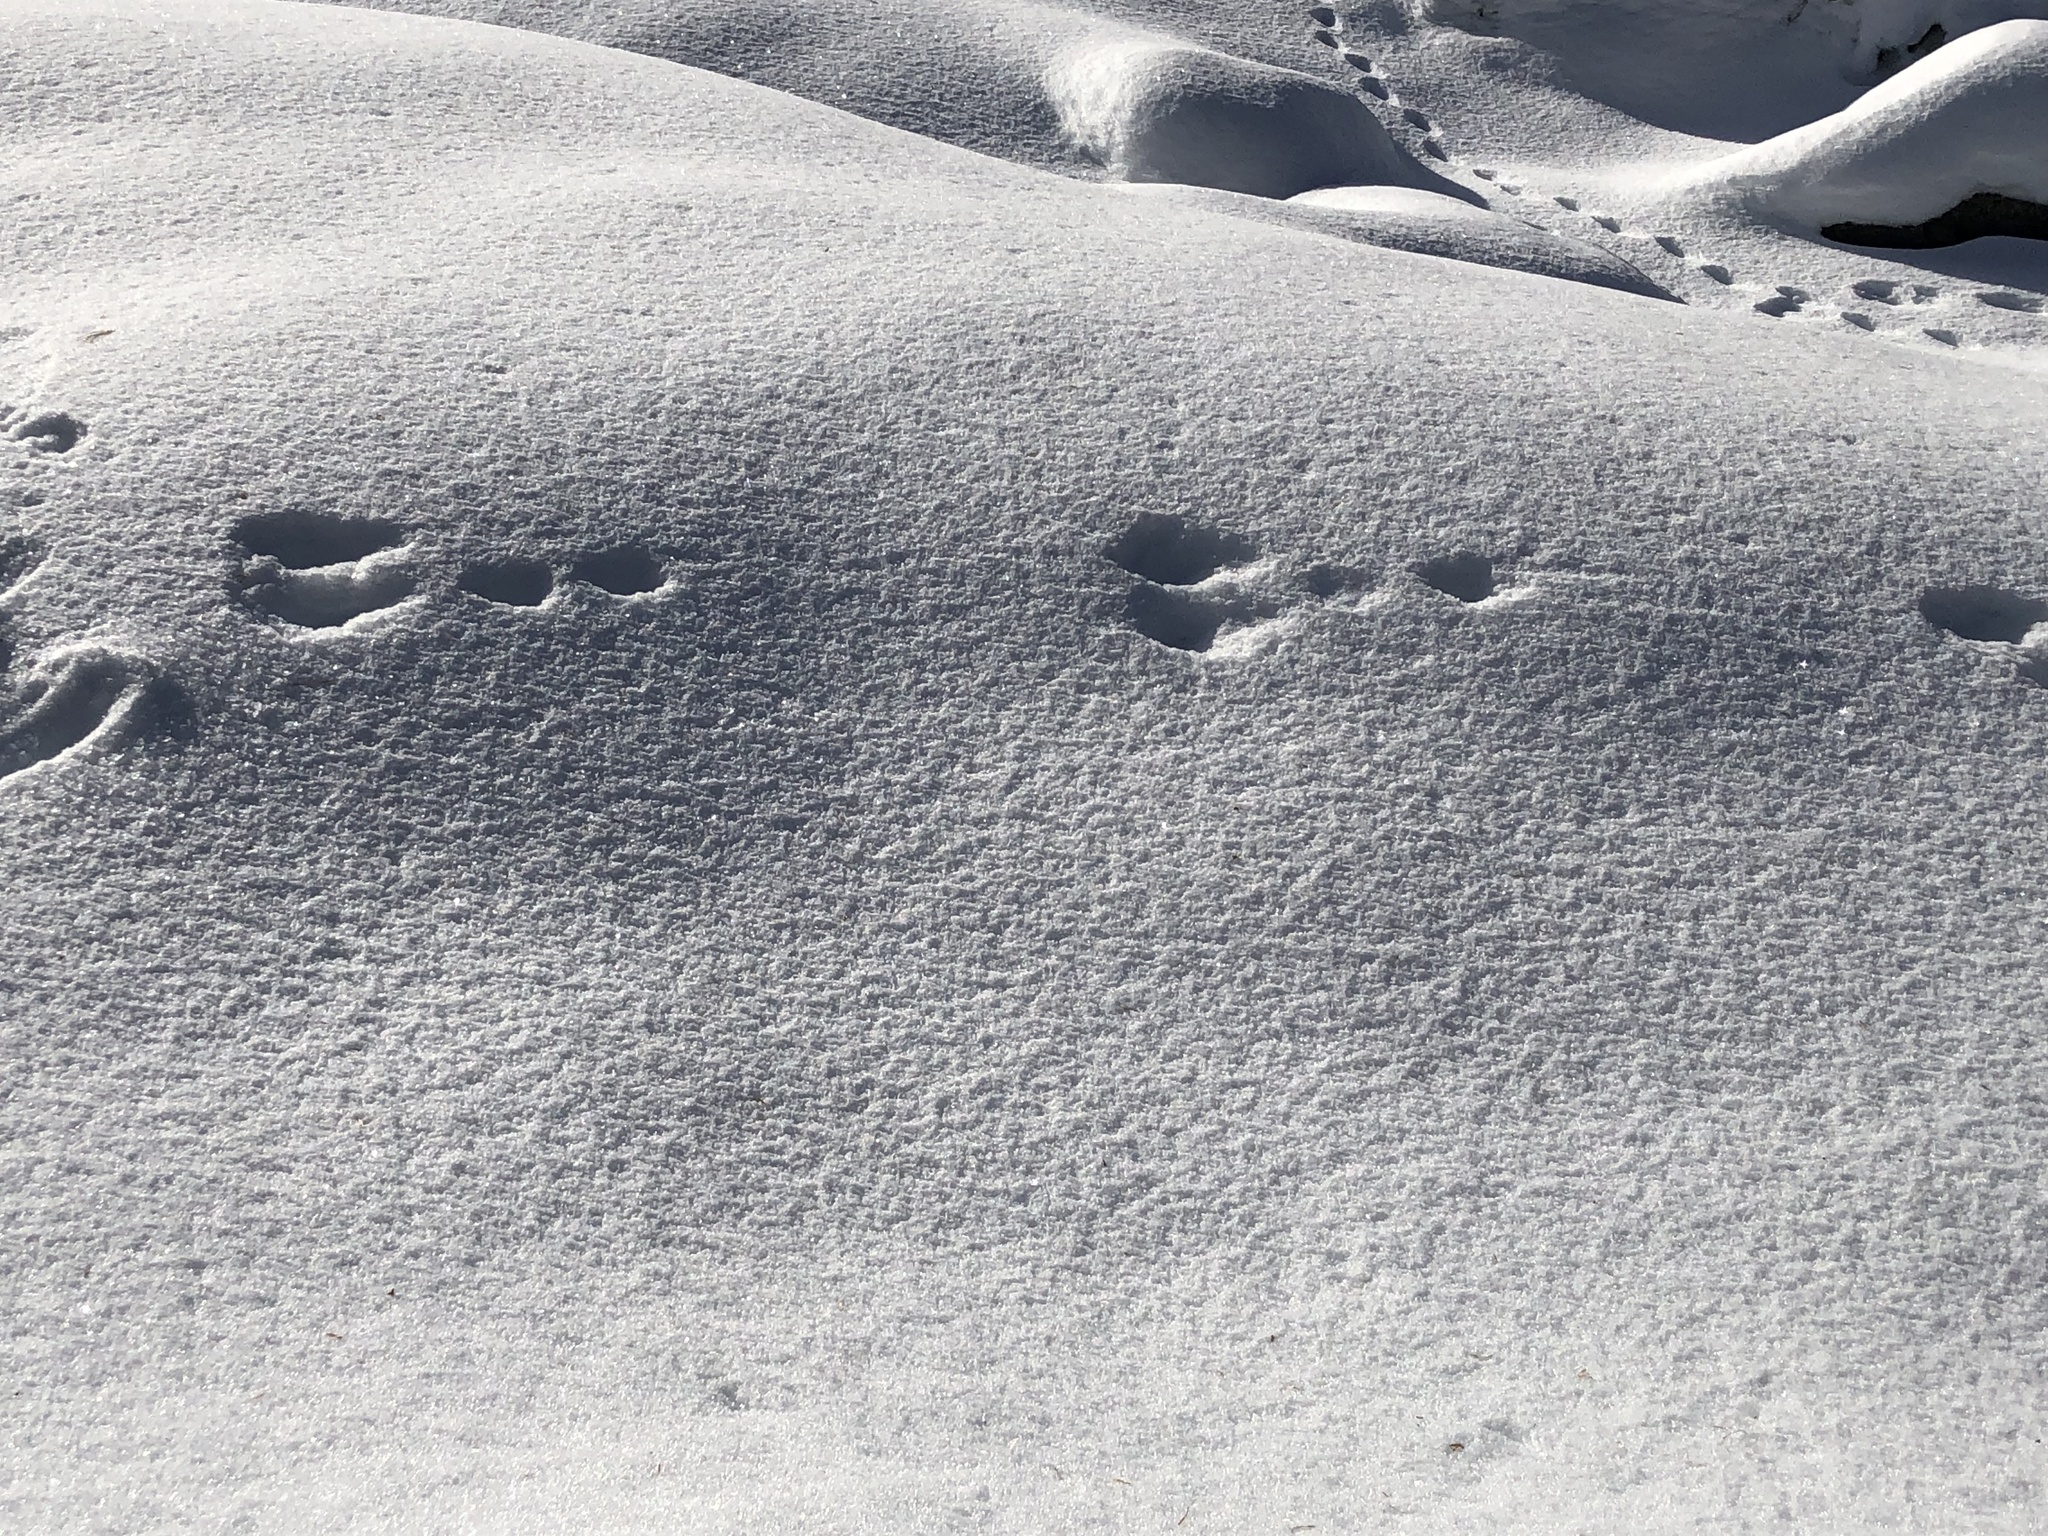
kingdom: Animalia
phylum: Chordata
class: Mammalia
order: Lagomorpha
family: Leporidae
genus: Lepus
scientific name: Lepus timidus
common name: Mountain hare
